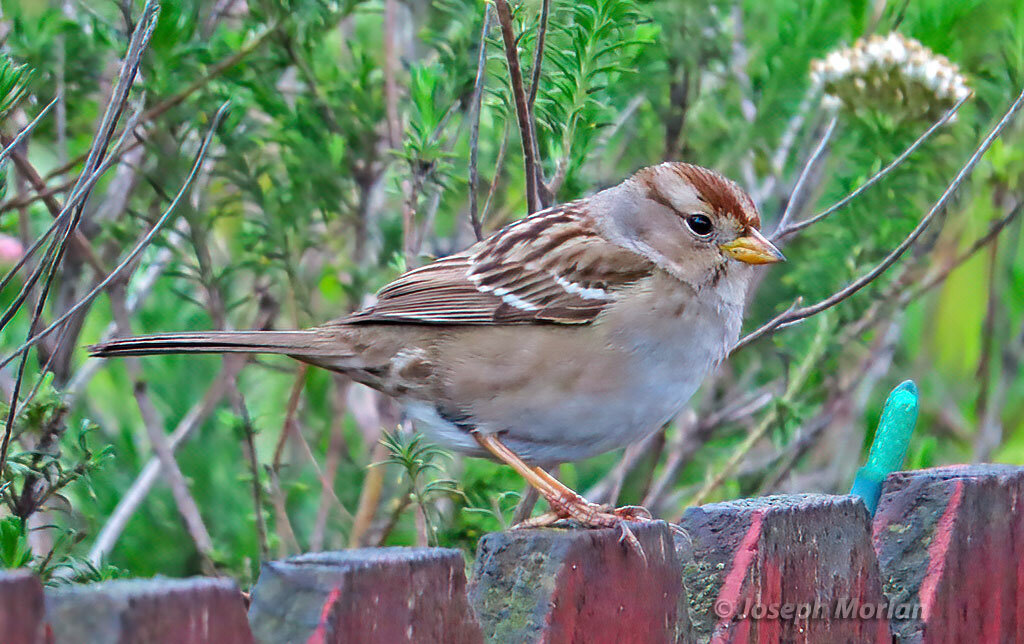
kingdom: Animalia
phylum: Chordata
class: Aves
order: Passeriformes
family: Passerellidae
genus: Zonotrichia
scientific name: Zonotrichia leucophrys
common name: White-crowned sparrow
